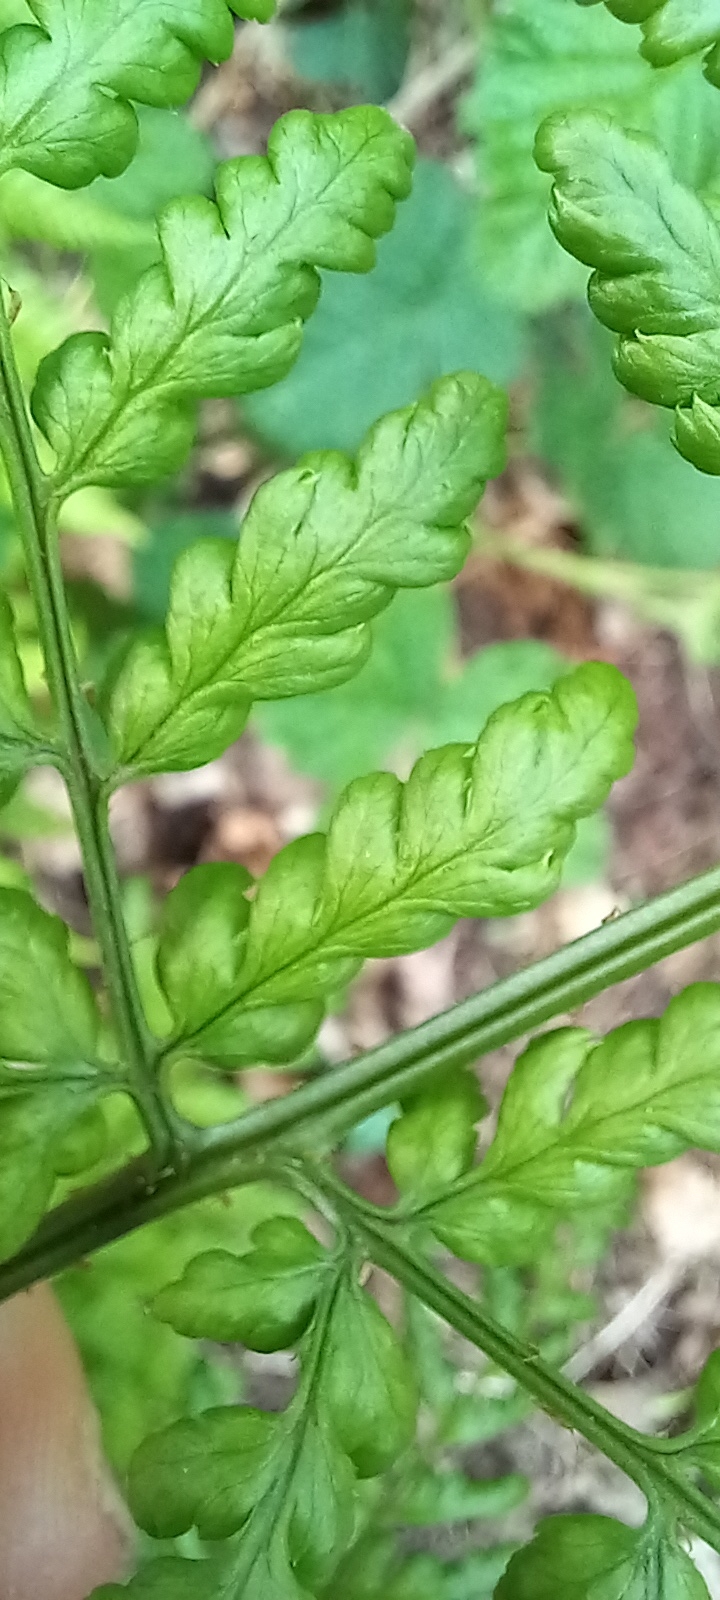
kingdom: Plantae
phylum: Tracheophyta
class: Polypodiopsida
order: Polypodiales
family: Dryopteridaceae
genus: Dryopteris
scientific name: Dryopteris dilatata
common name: Broad buckler-fern
